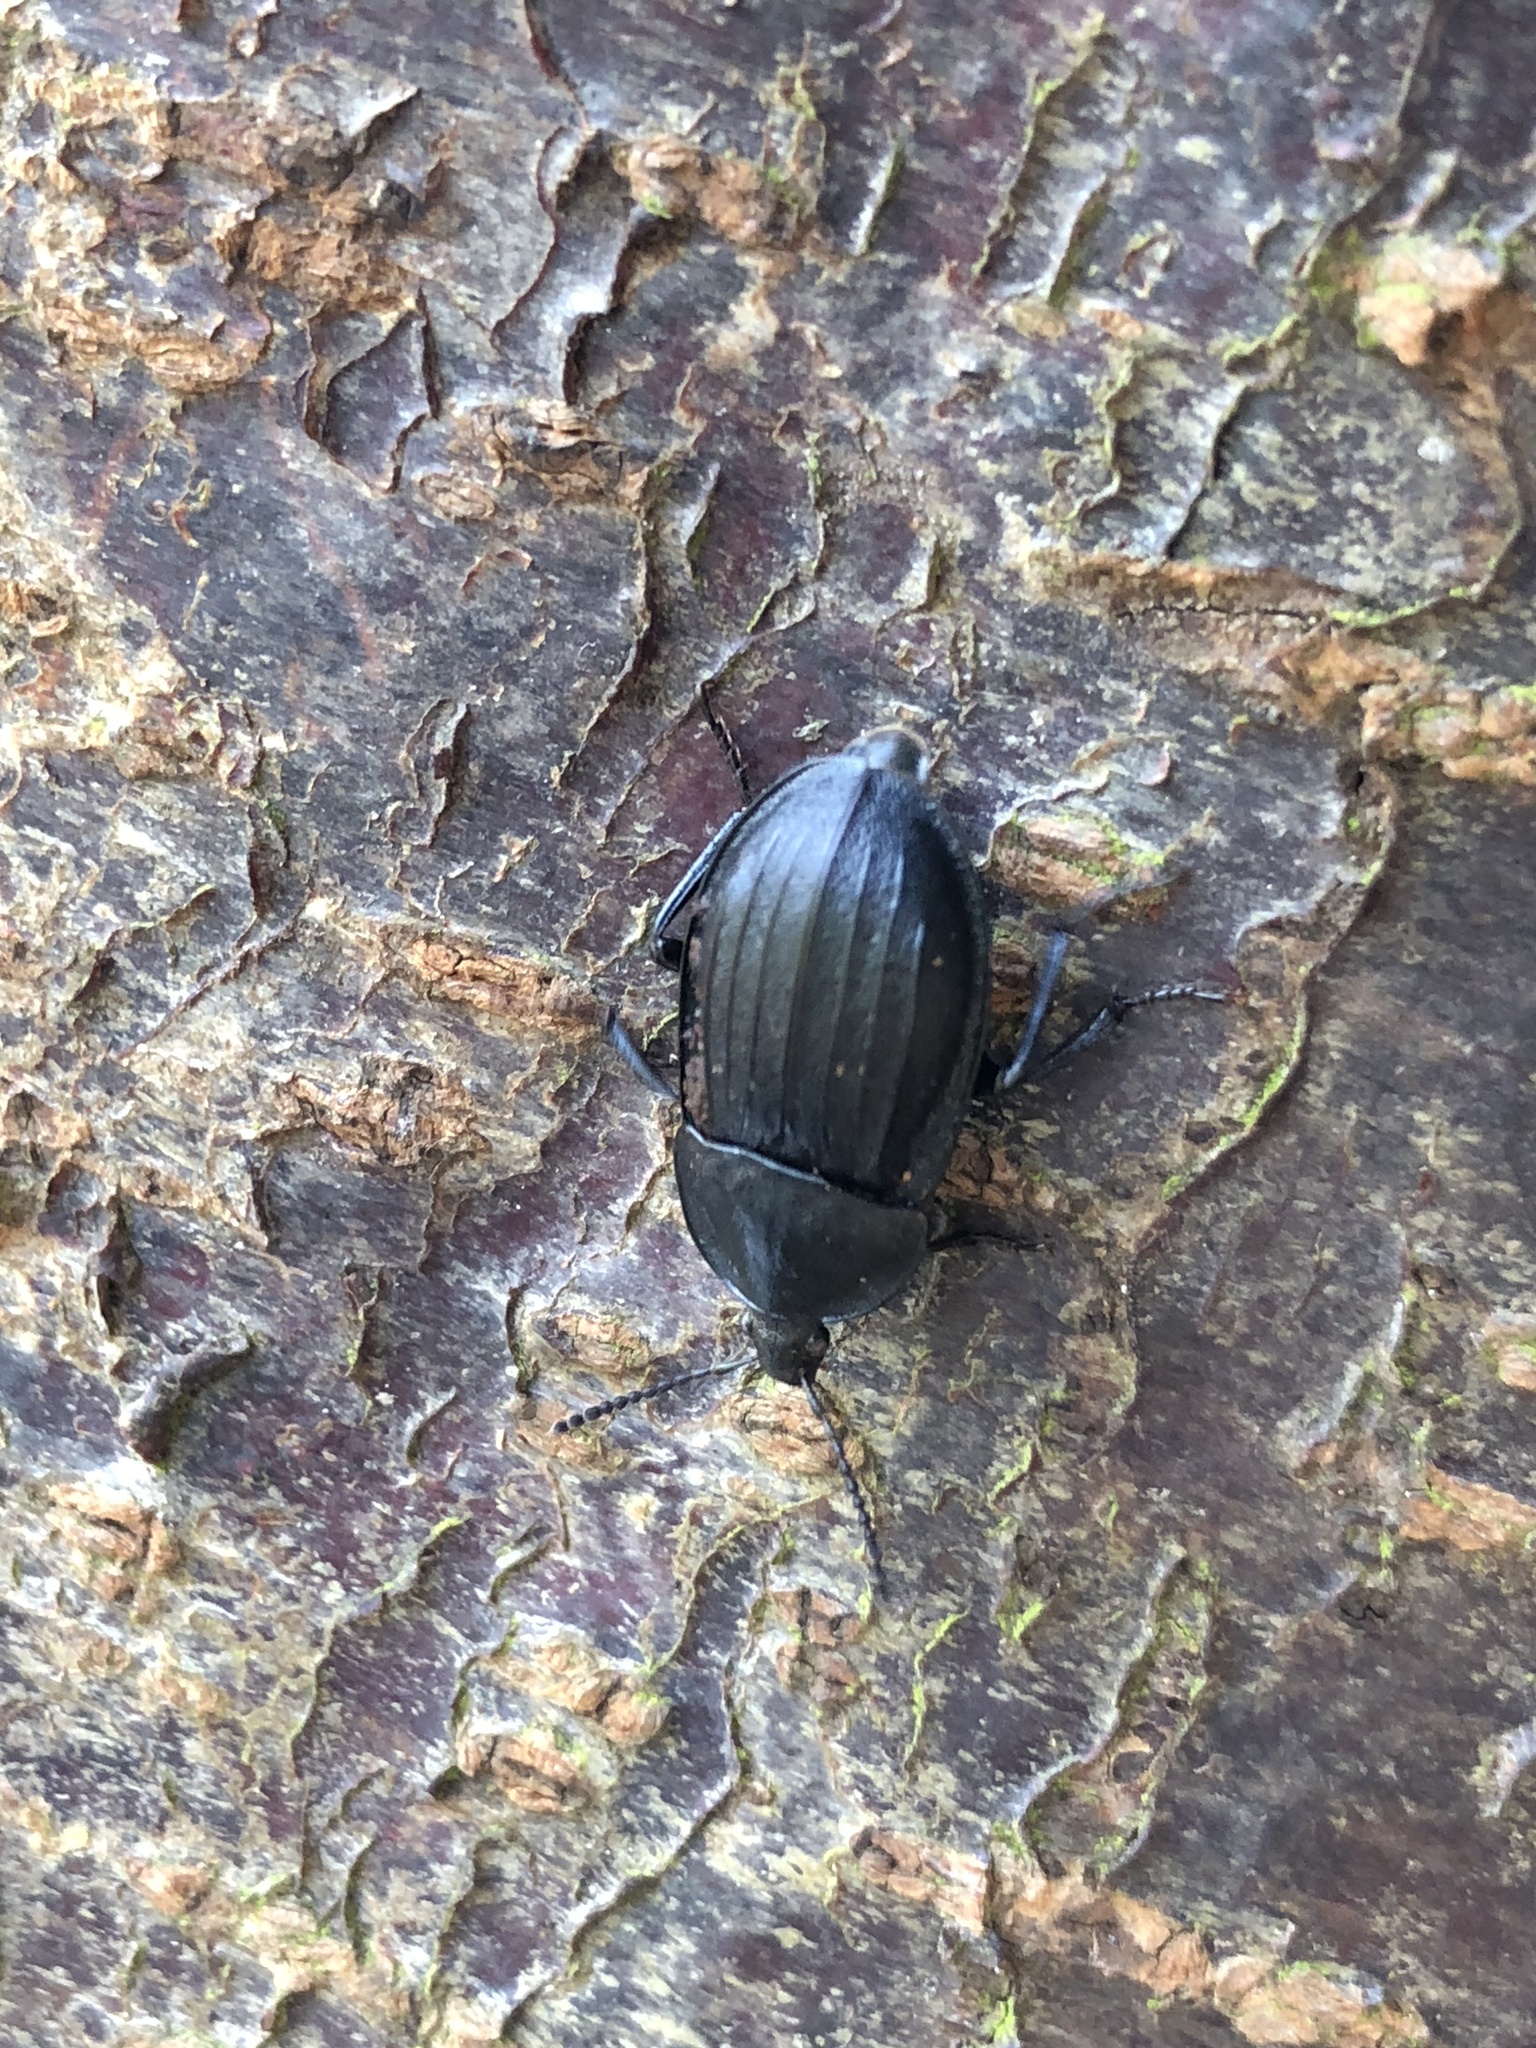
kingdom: Animalia
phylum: Arthropoda
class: Insecta
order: Coleoptera
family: Staphylinidae
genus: Silpha
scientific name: Silpha atrata
